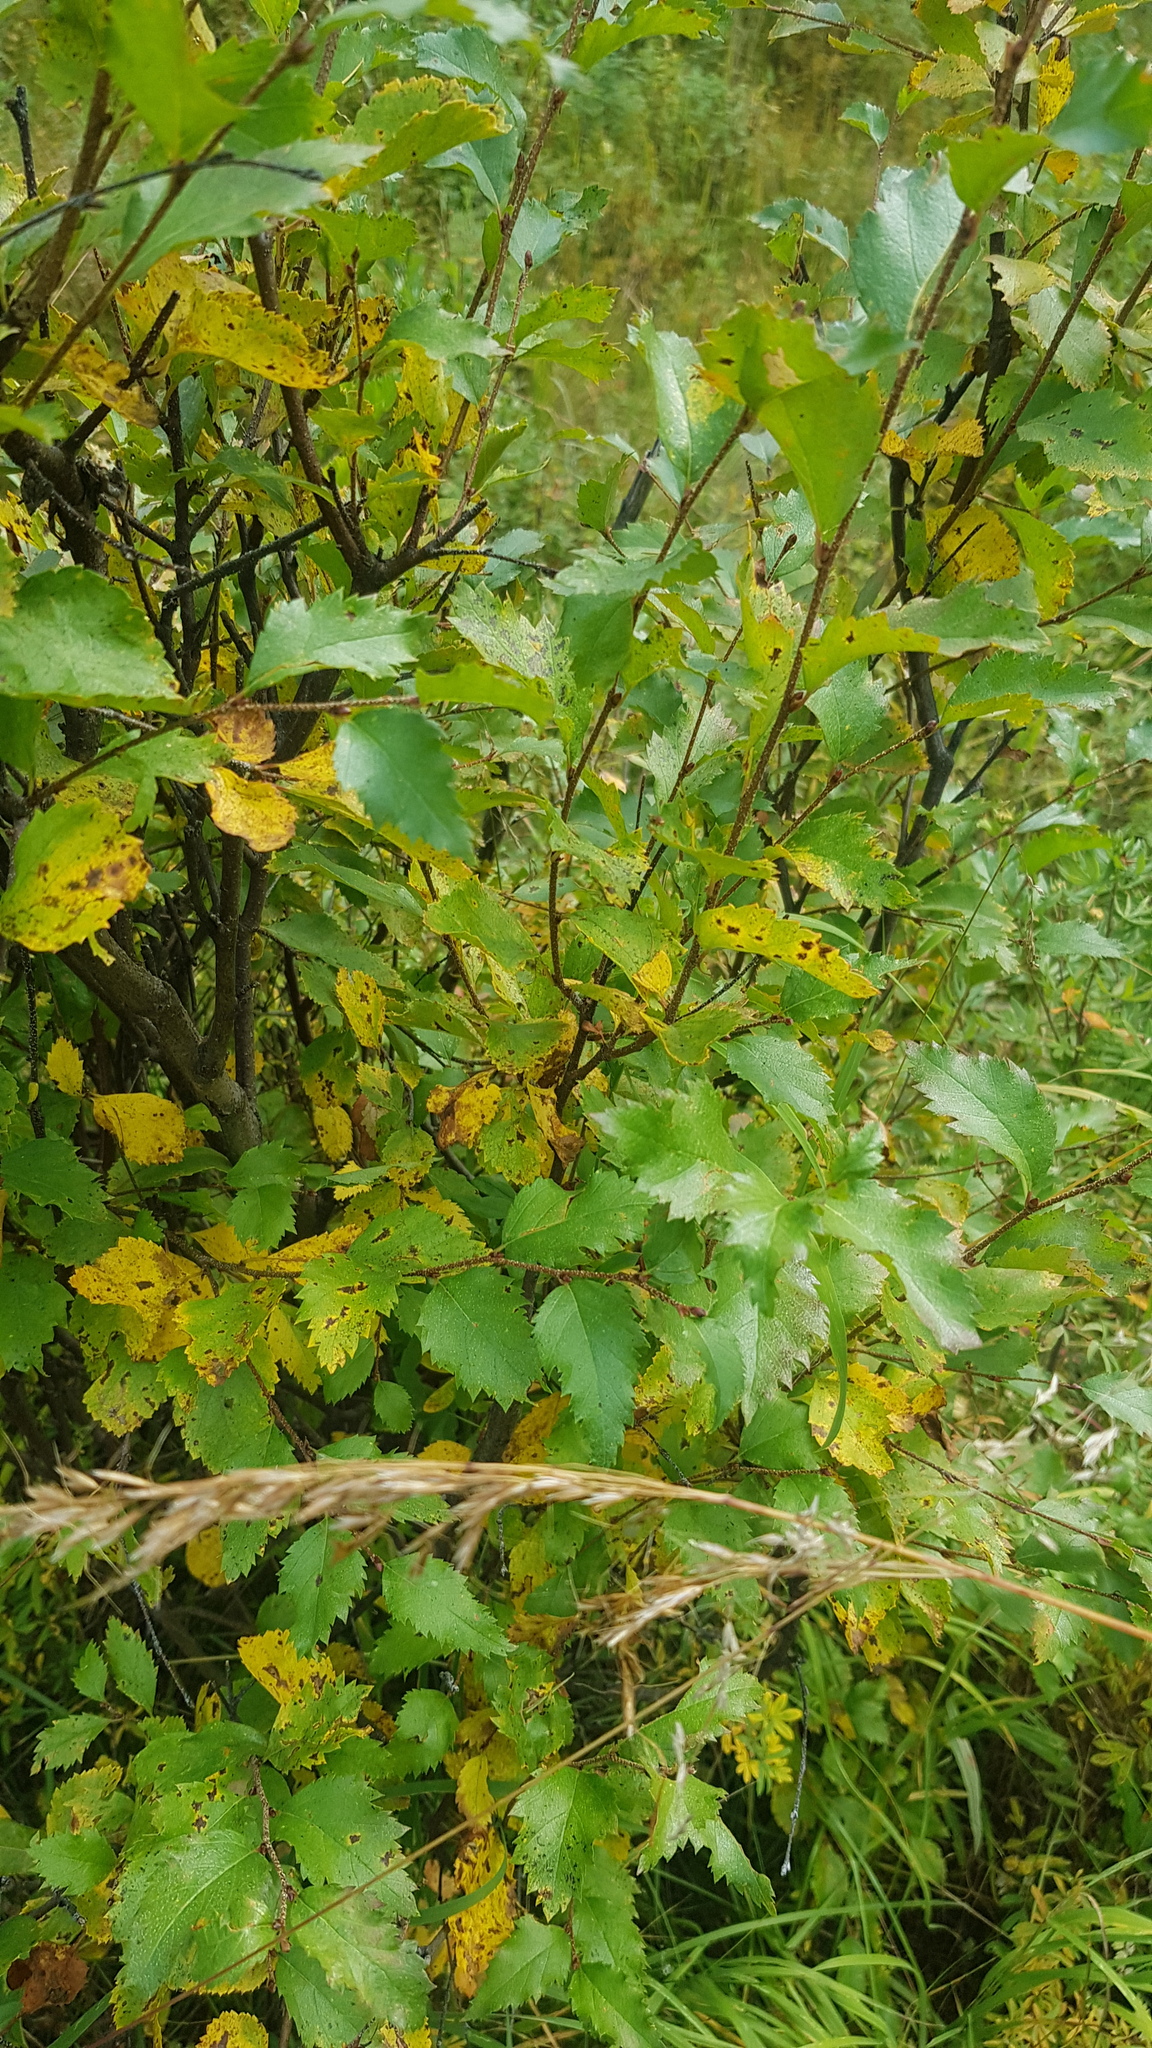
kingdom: Plantae
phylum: Tracheophyta
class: Magnoliopsida
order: Fagales
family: Betulaceae
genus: Betula
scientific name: Betula fruticosa
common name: Japanese bog birch
